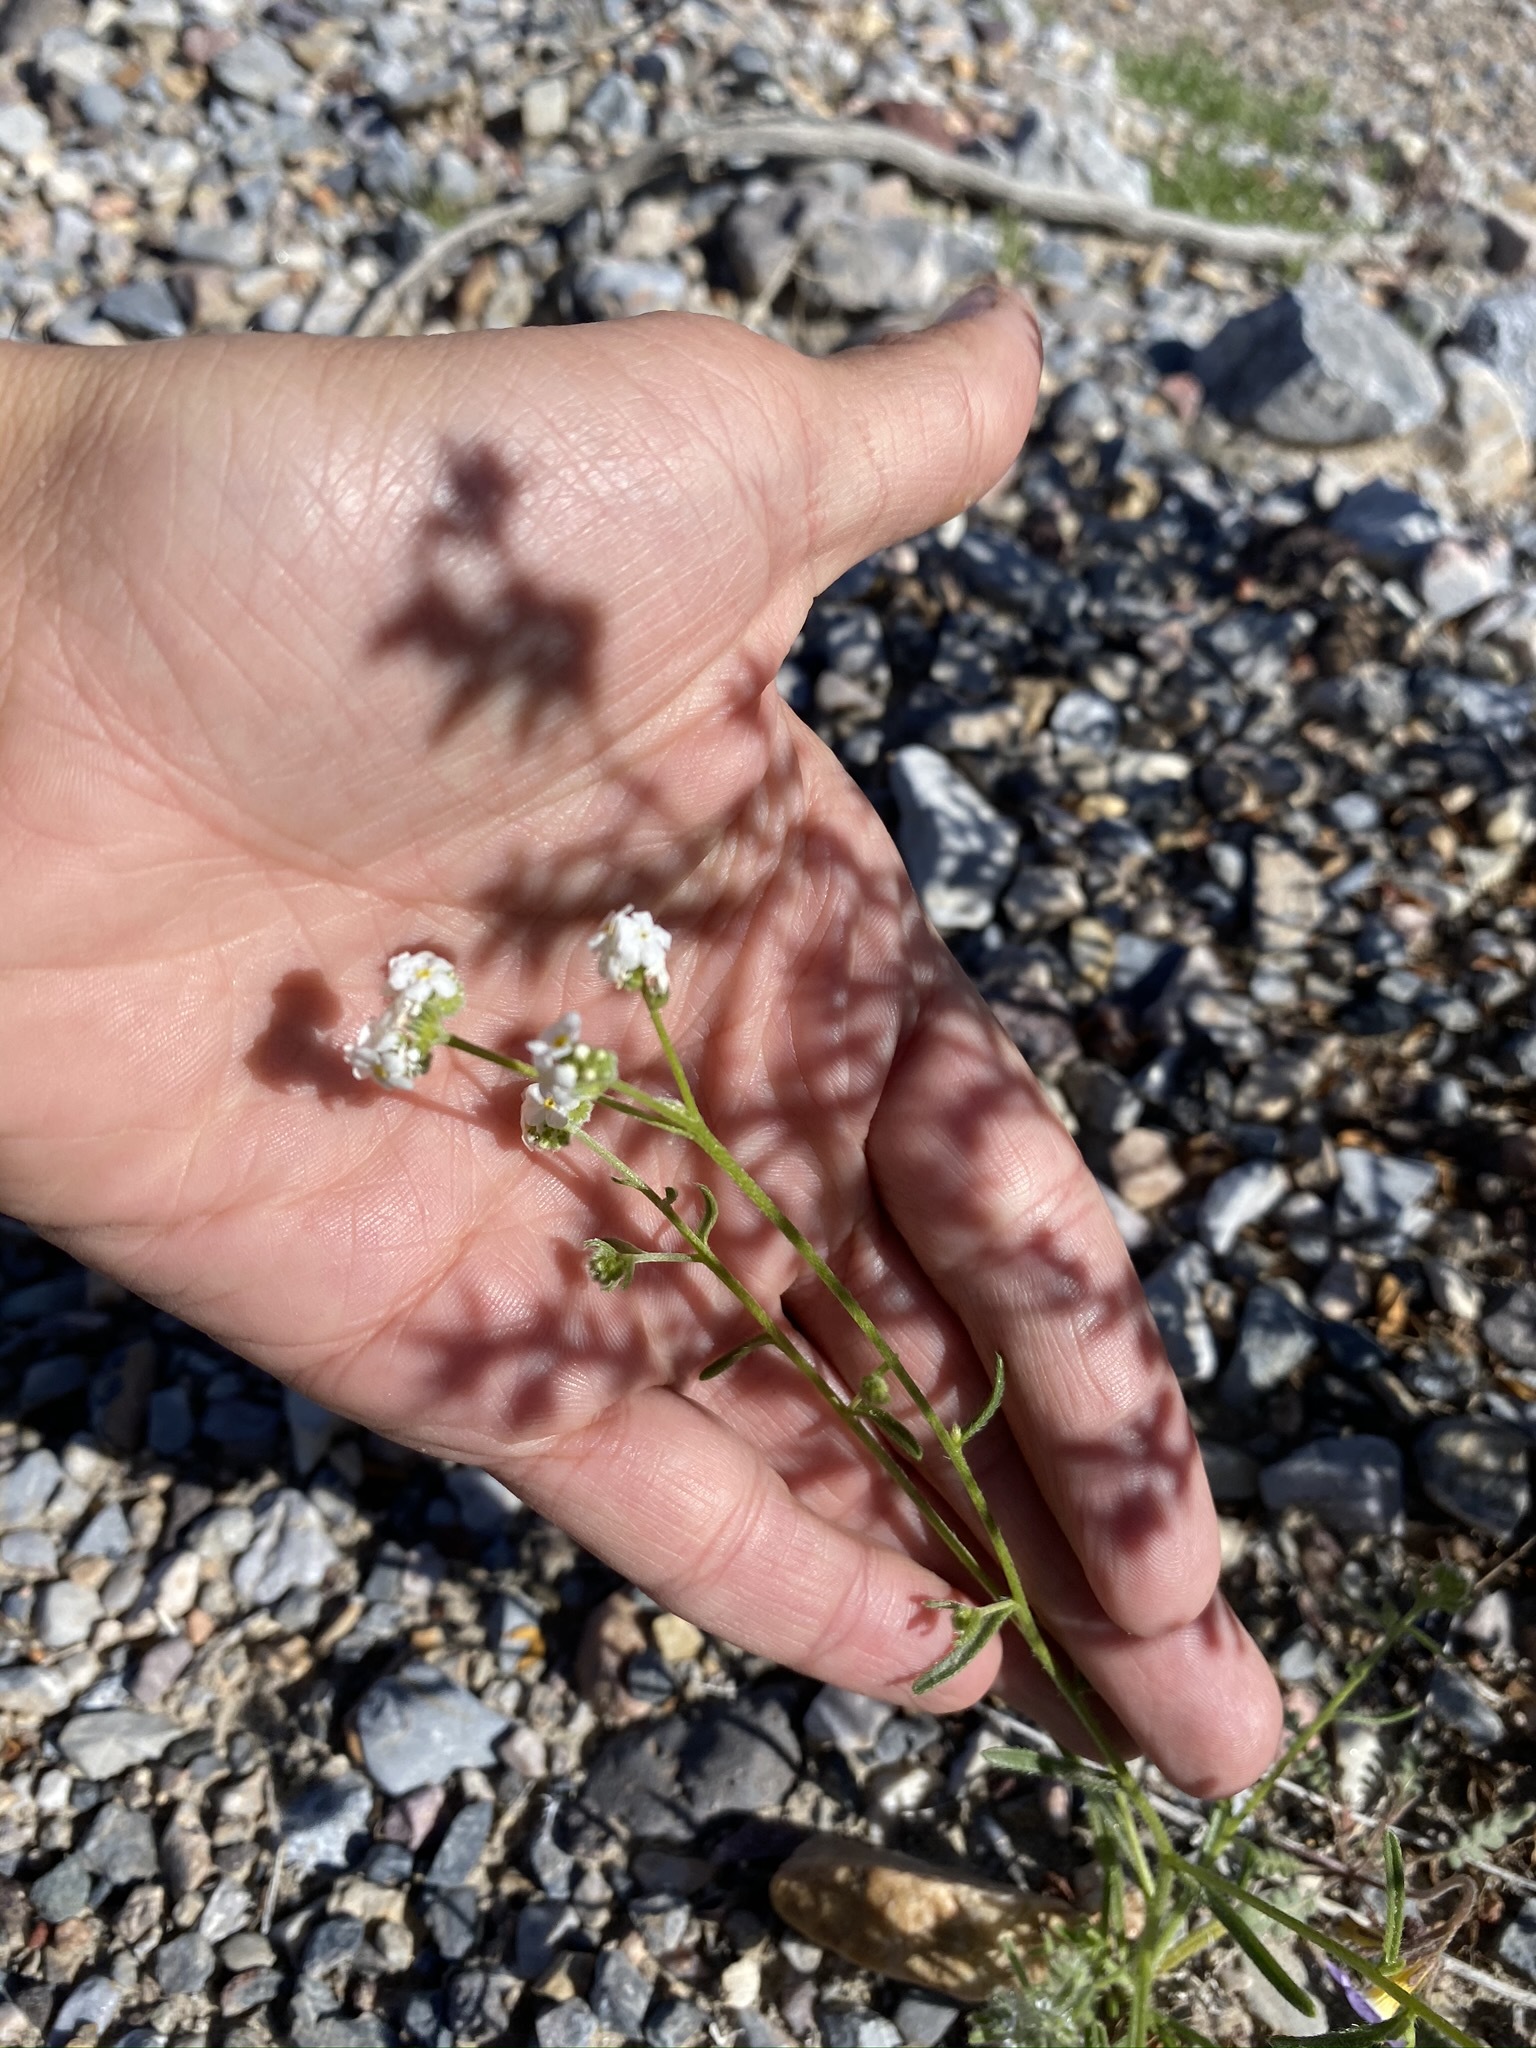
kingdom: Plantae
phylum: Tracheophyta
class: Magnoliopsida
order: Boraginales
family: Boraginaceae
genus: Cryptantha
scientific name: Cryptantha utahensis
